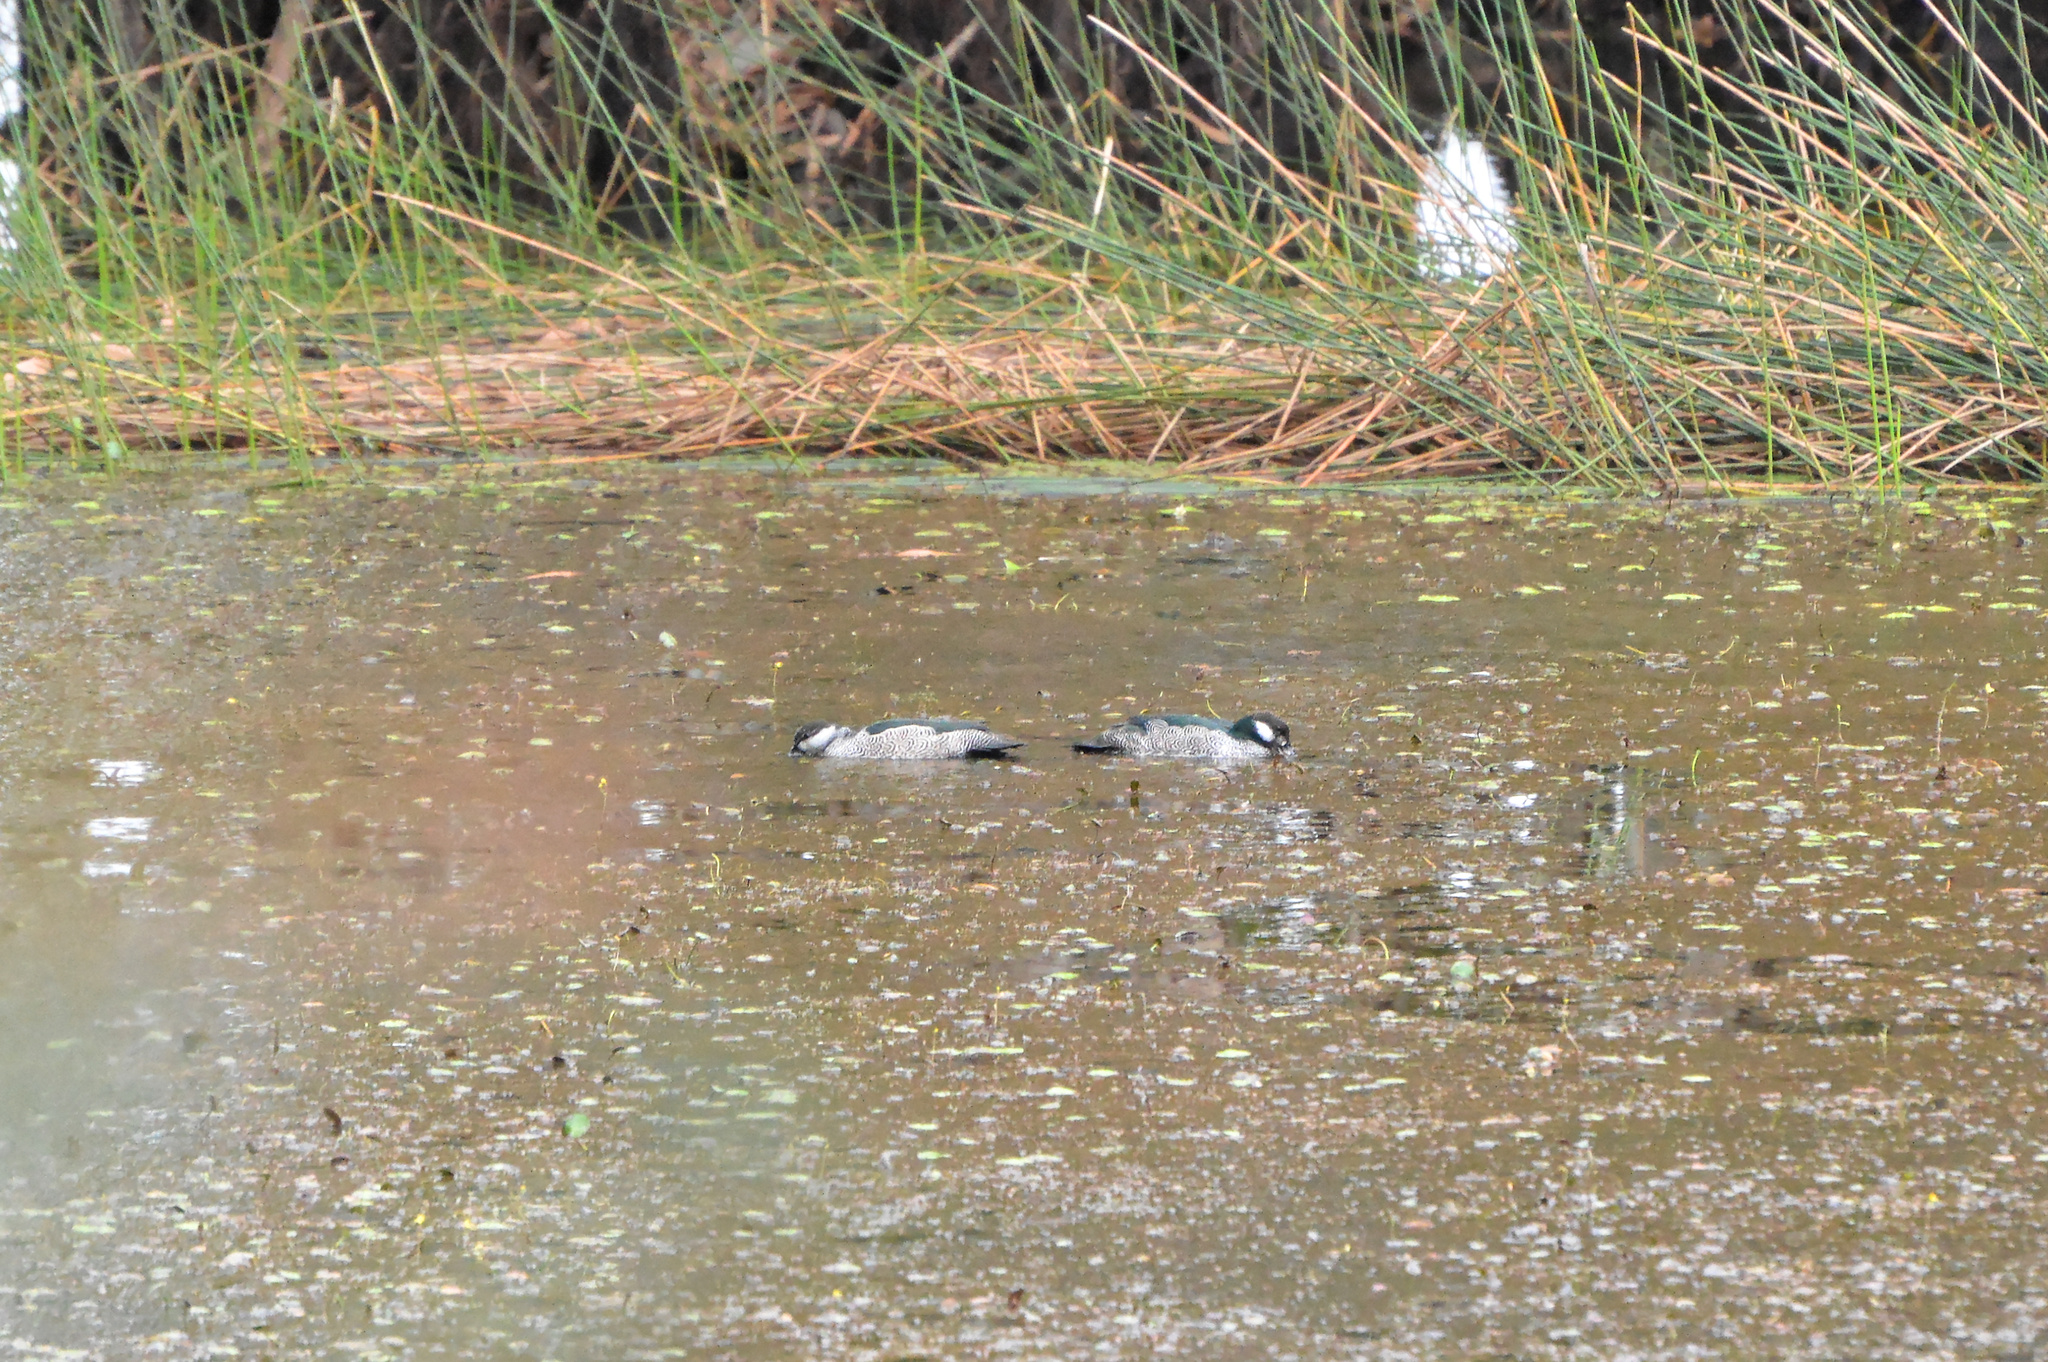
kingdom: Animalia
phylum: Chordata
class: Aves
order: Anseriformes
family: Anatidae
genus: Nettapus
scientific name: Nettapus pulchellus
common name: Green pygmy-goose
